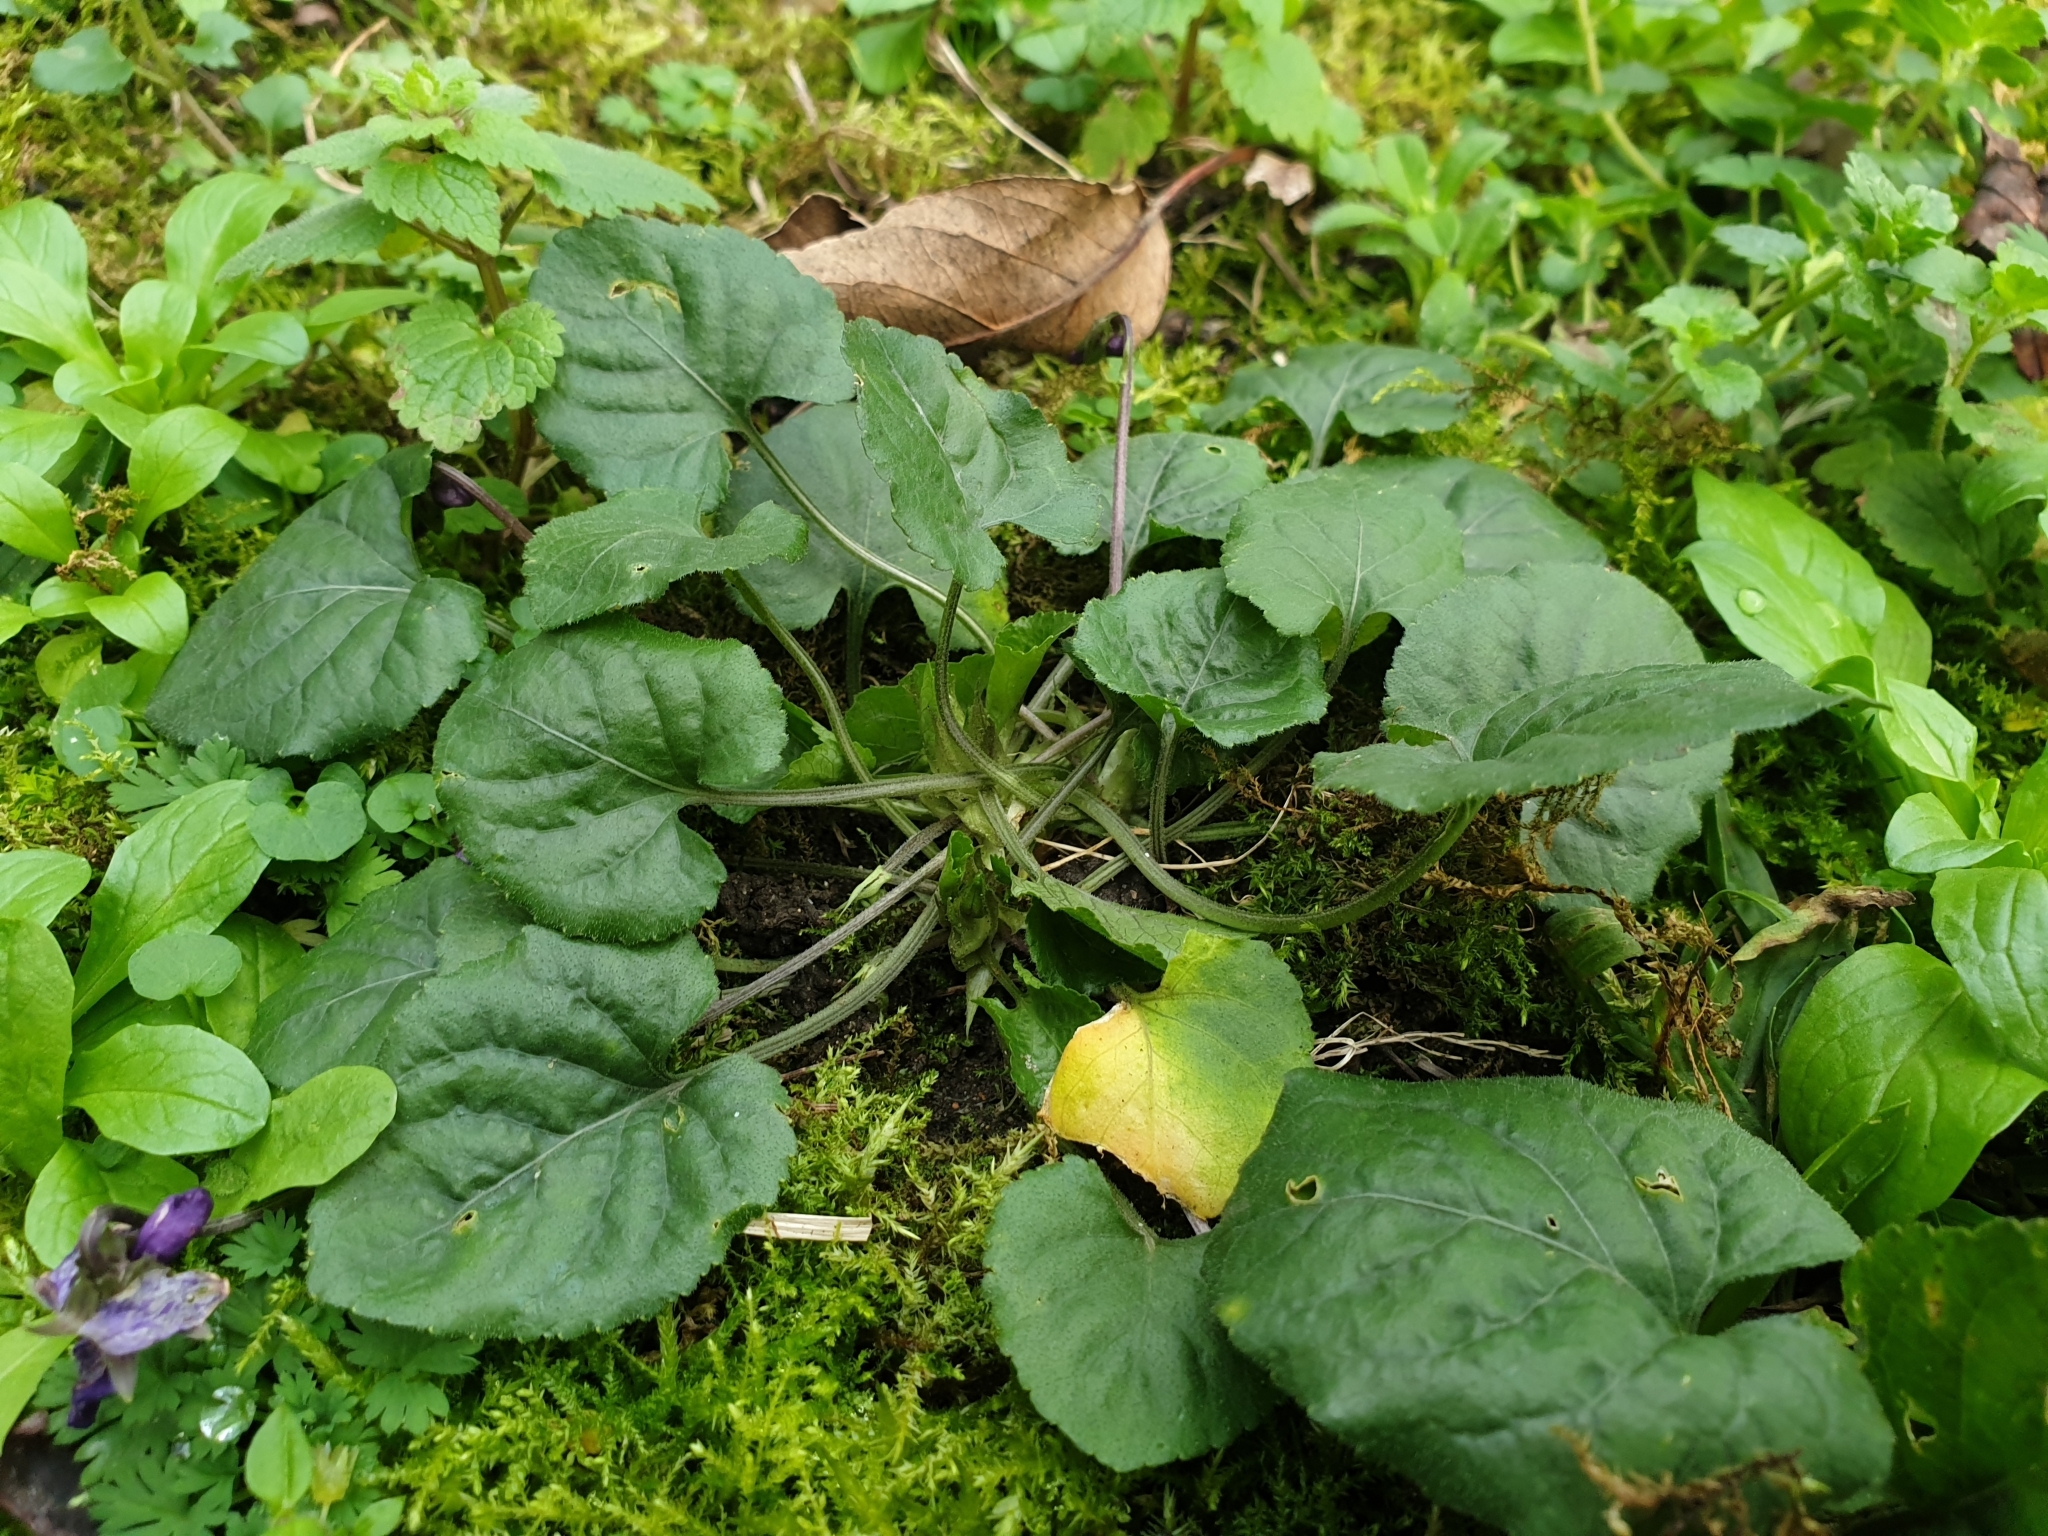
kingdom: Plantae
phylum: Tracheophyta
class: Magnoliopsida
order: Malpighiales
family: Violaceae
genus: Viola
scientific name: Viola odorata
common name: Sweet violet
